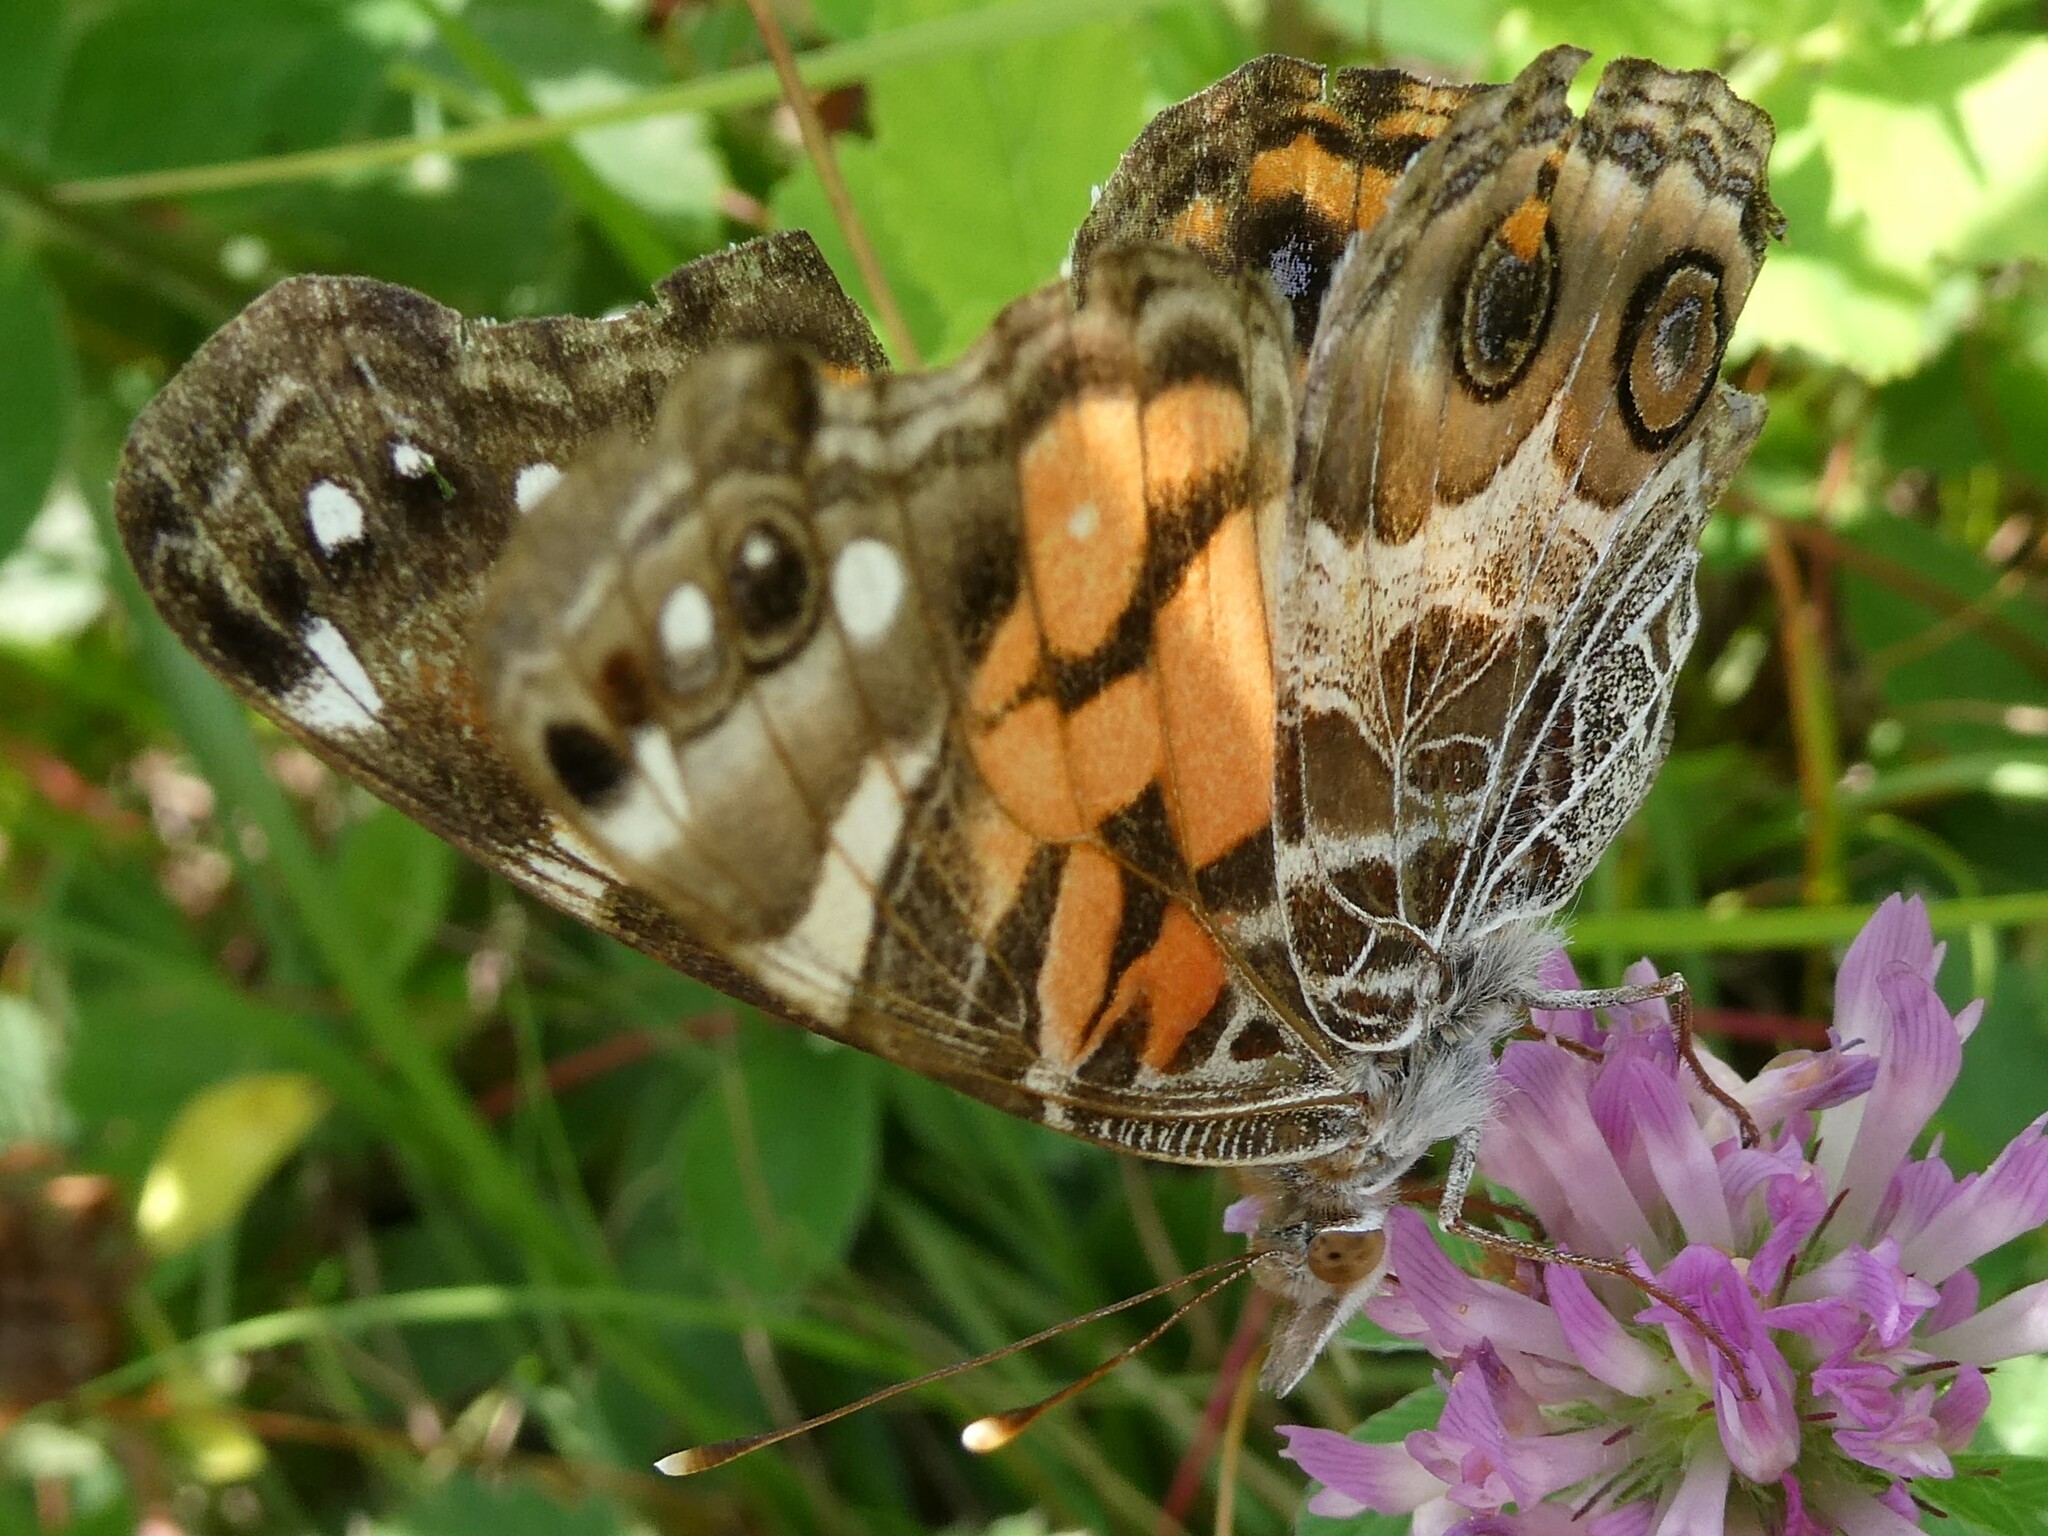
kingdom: Animalia
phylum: Arthropoda
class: Insecta
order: Lepidoptera
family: Nymphalidae
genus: Vanessa
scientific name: Vanessa virginiensis
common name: American lady
